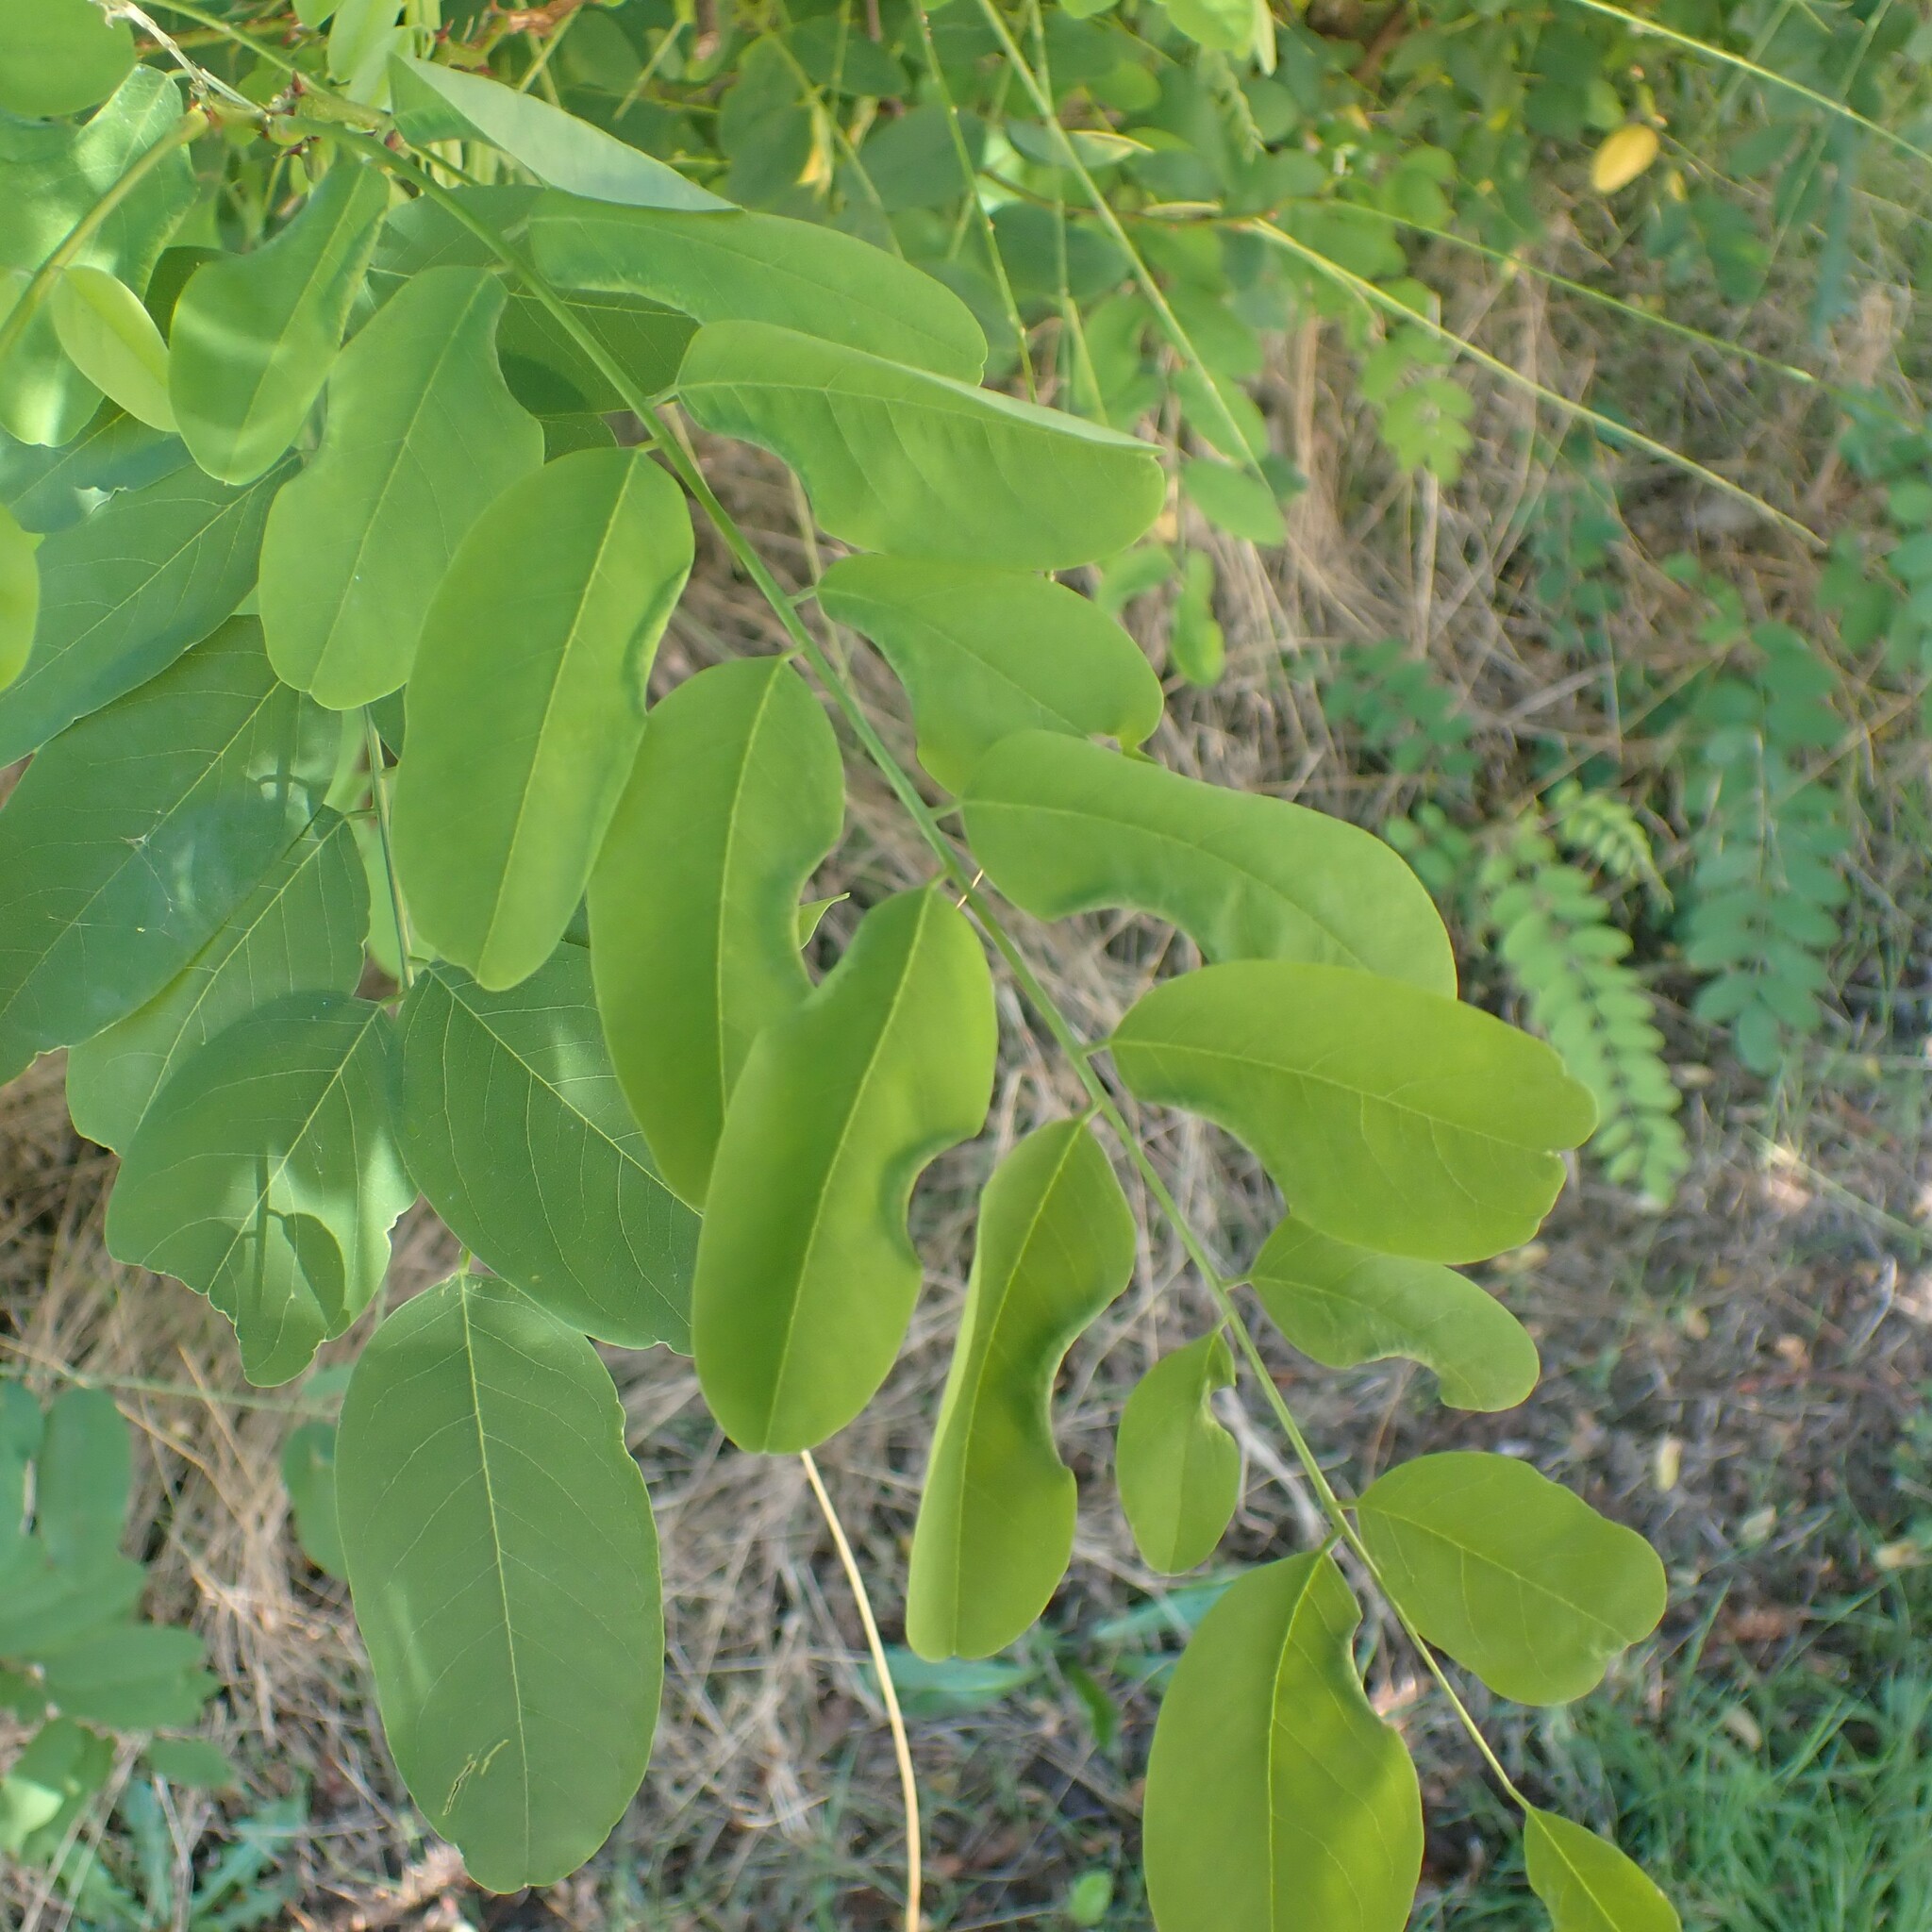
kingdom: Animalia
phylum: Arthropoda
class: Insecta
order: Diptera
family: Cecidomyiidae
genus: Obolodiplosis
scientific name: Obolodiplosis robiniae
